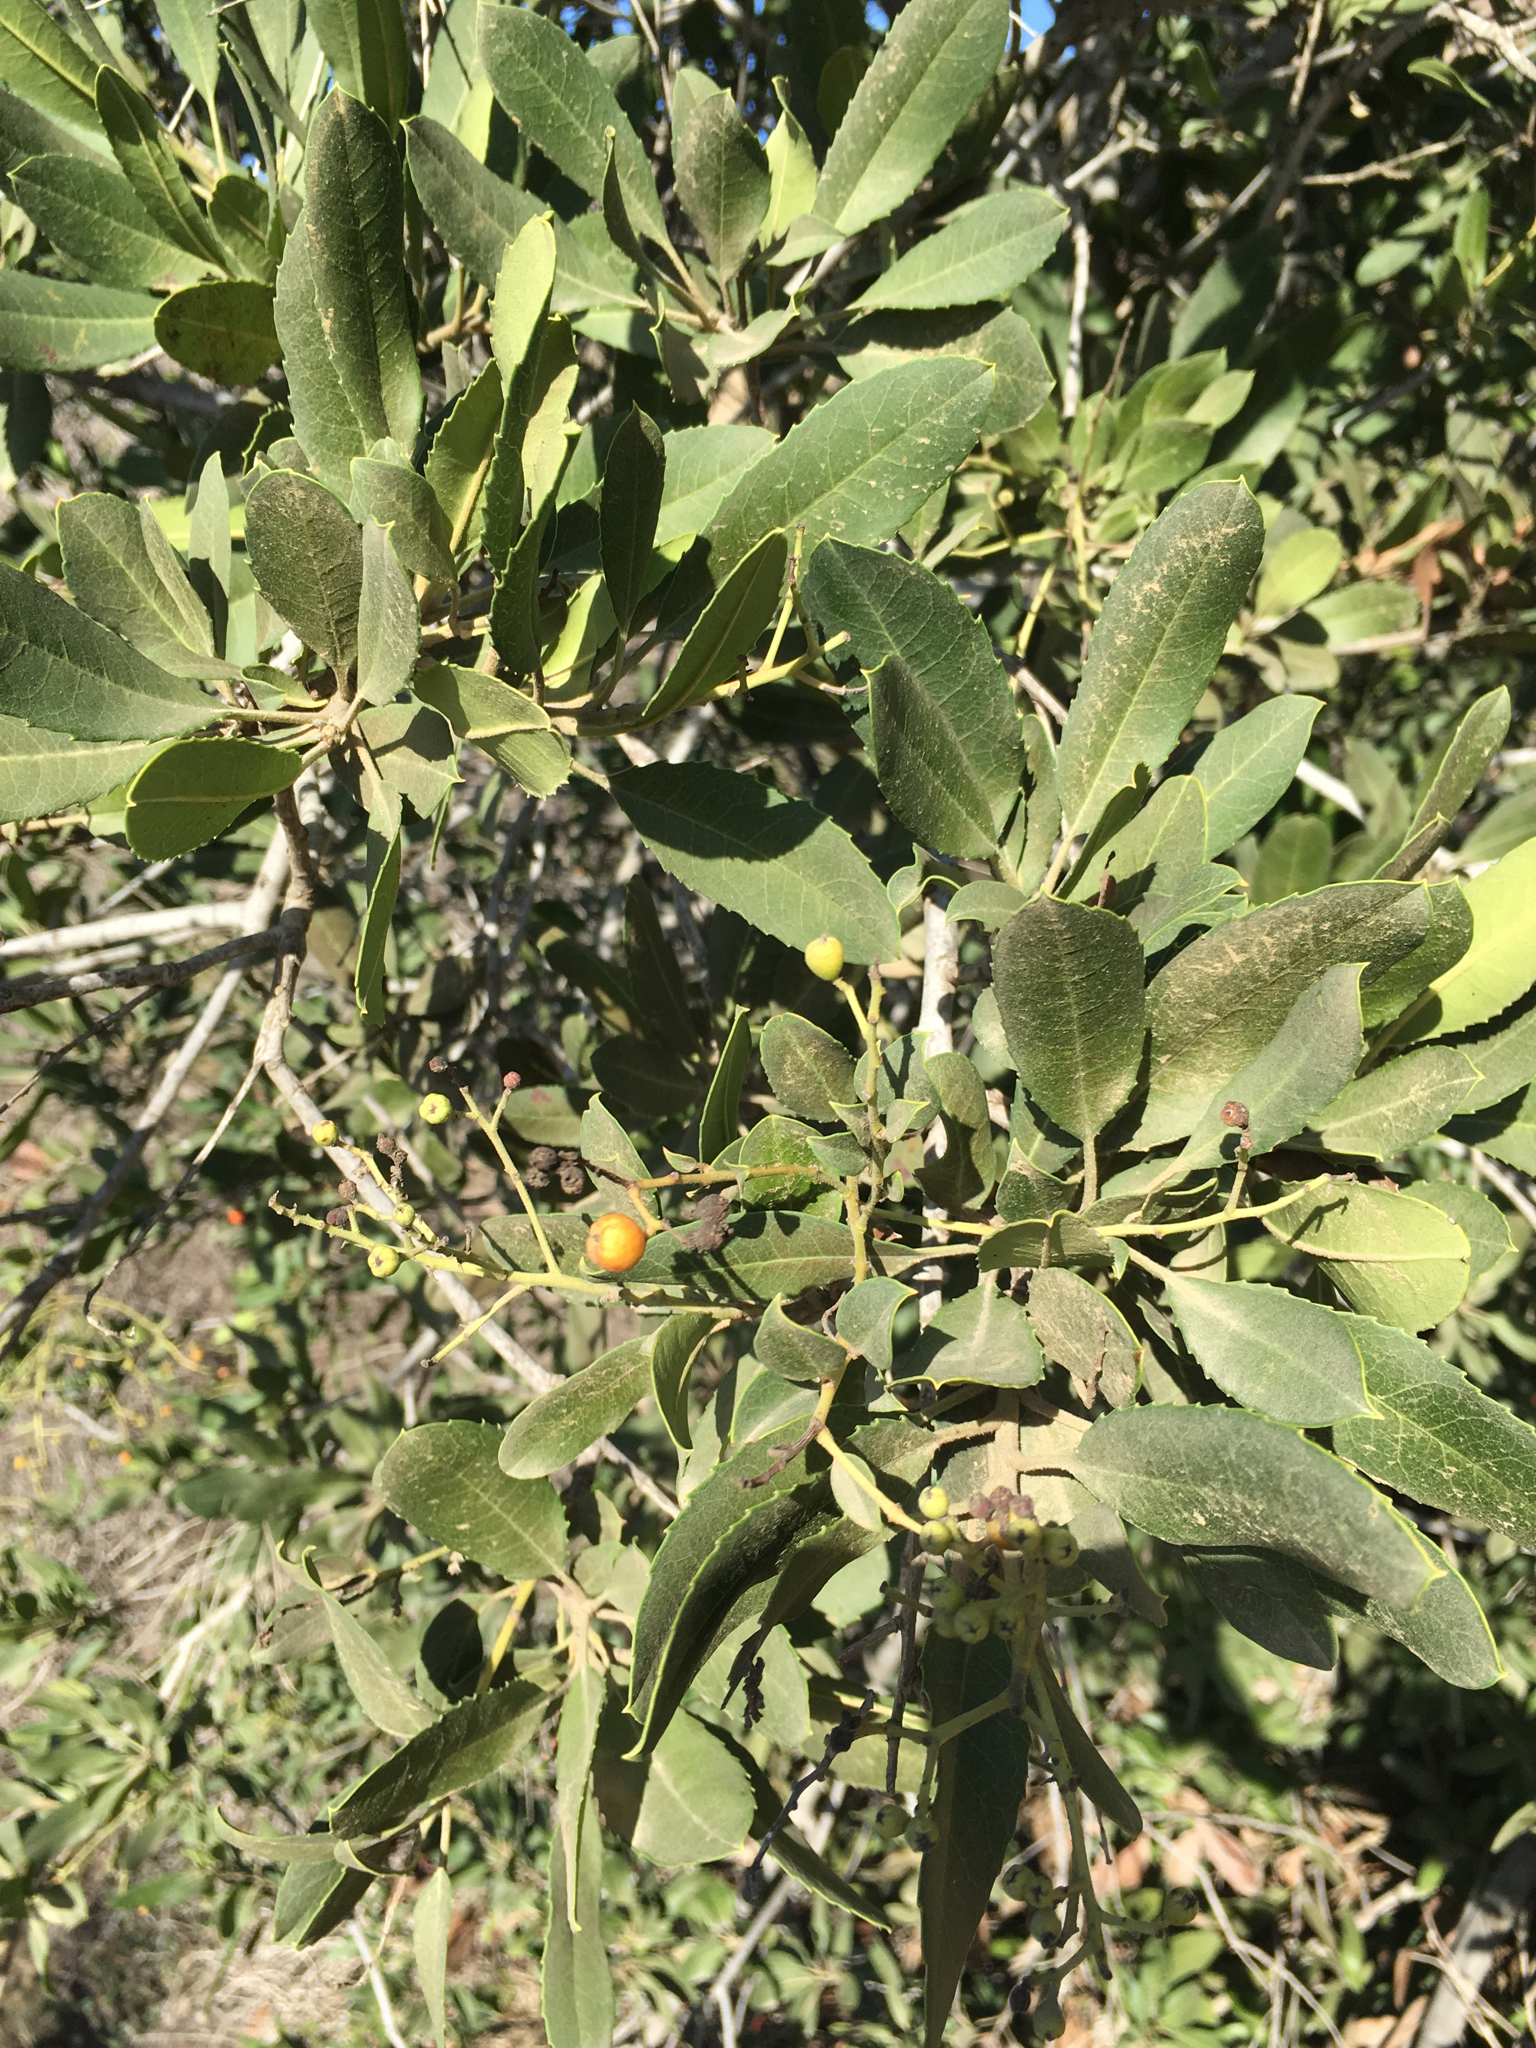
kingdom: Plantae
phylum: Tracheophyta
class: Magnoliopsida
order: Rosales
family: Rosaceae
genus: Heteromeles
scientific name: Heteromeles arbutifolia
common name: California-holly
